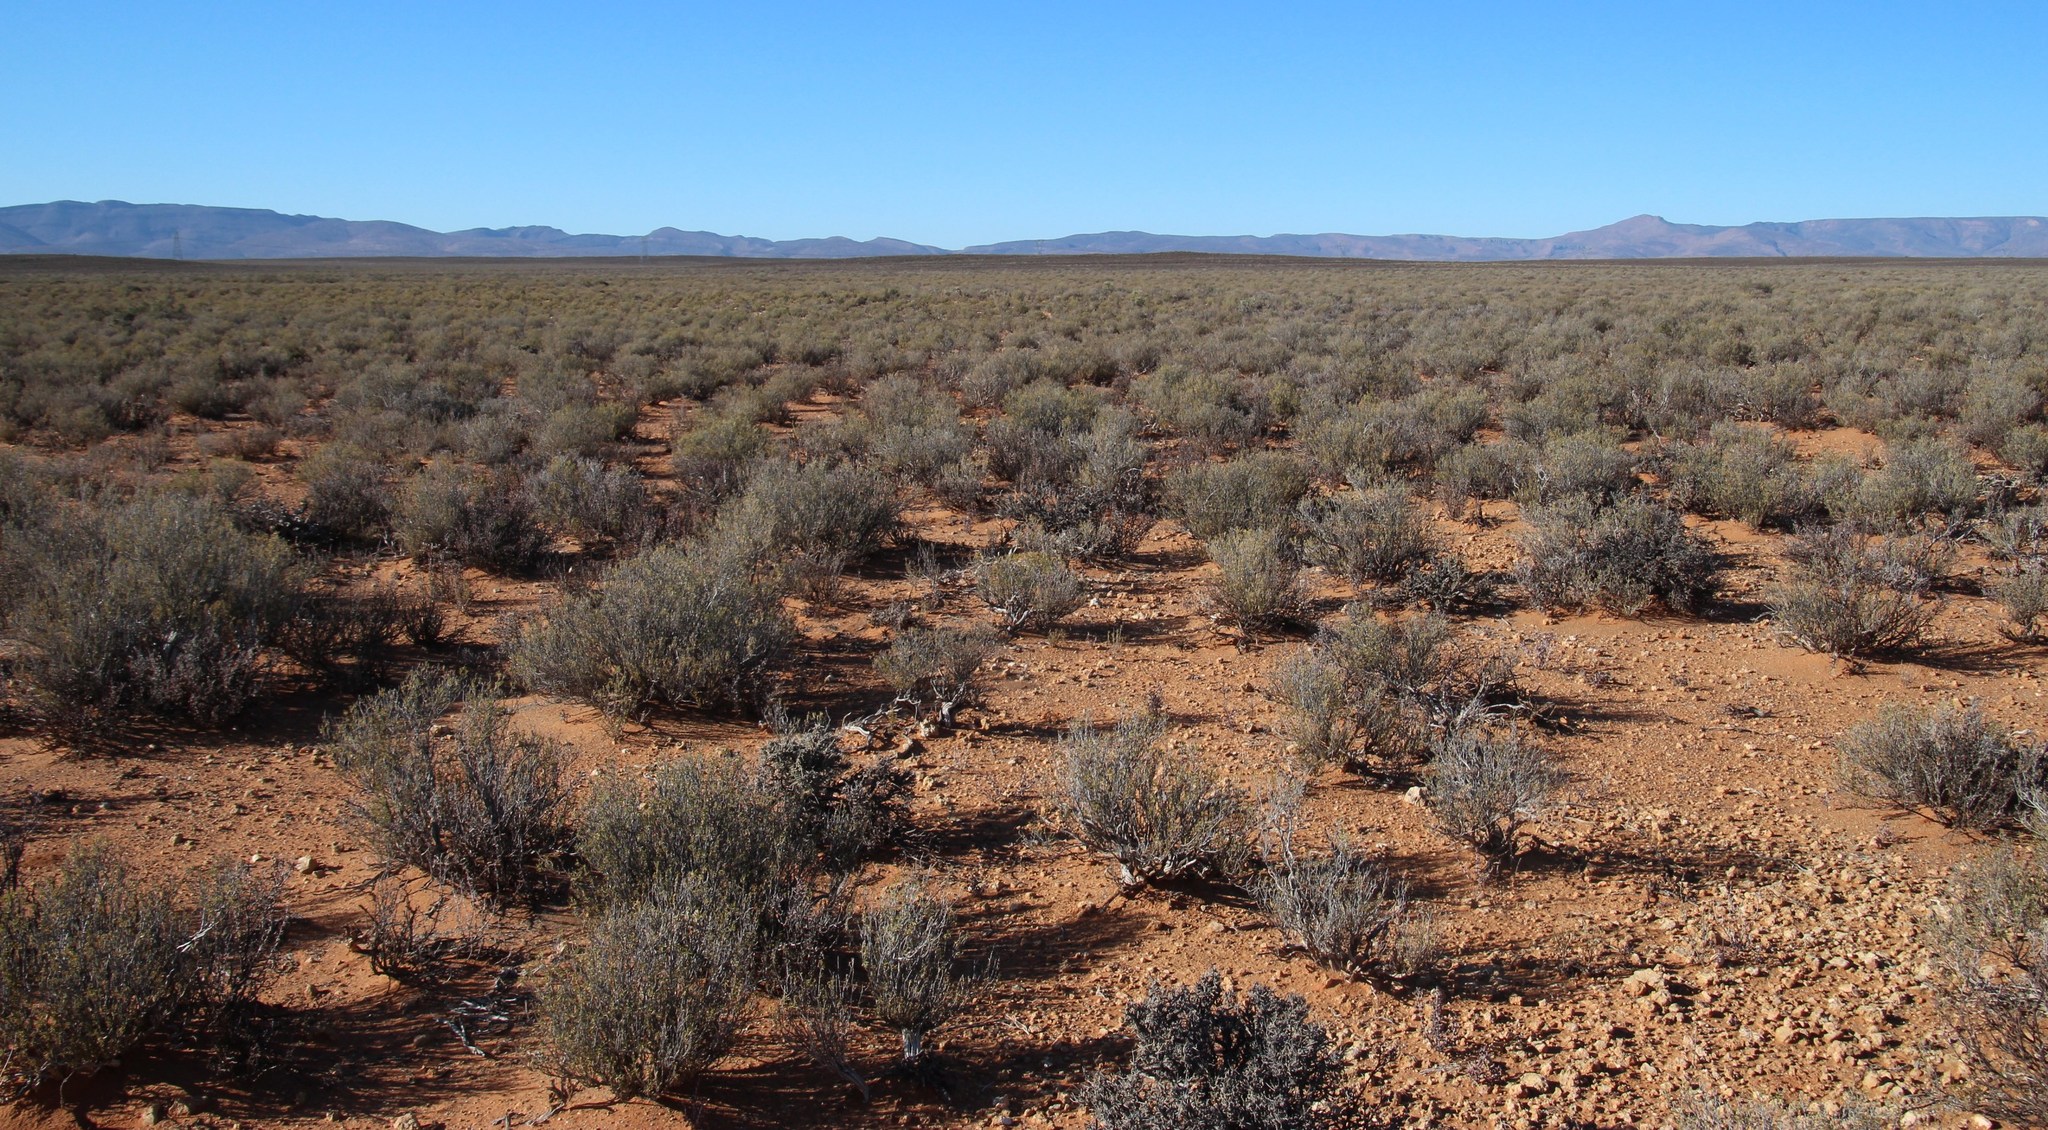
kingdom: Plantae
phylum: Tracheophyta
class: Magnoliopsida
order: Asterales
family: Asteraceae
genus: Pteronia
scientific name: Pteronia pallens
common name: Scholtzbush
